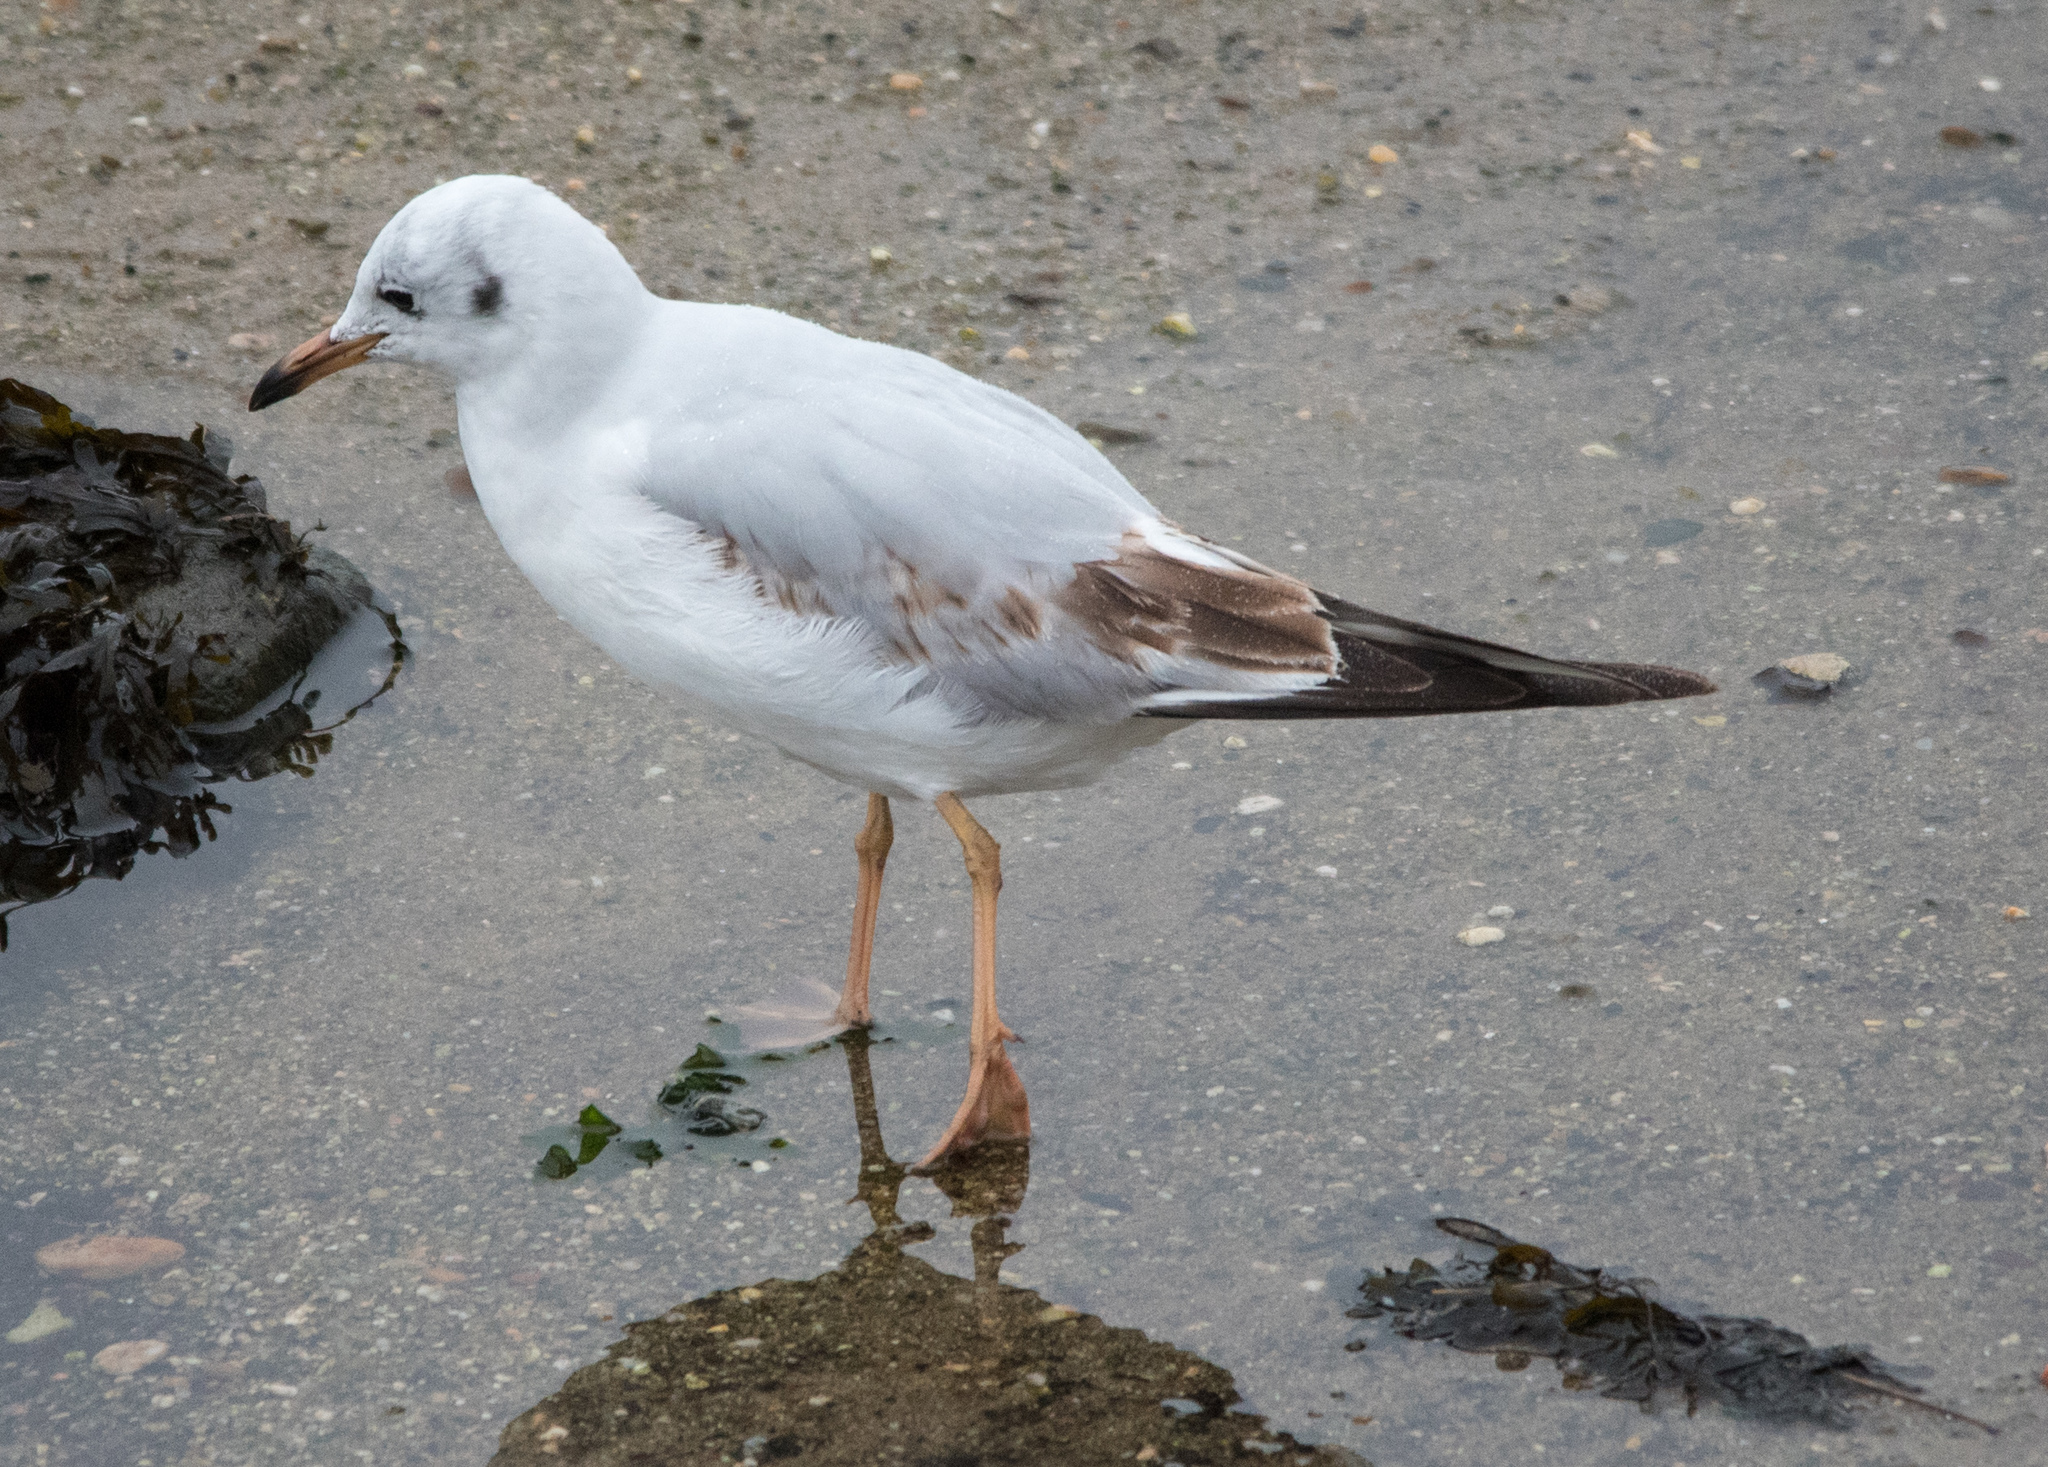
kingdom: Animalia
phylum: Chordata
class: Aves
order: Charadriiformes
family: Laridae
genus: Chroicocephalus
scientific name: Chroicocephalus ridibundus
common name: Black-headed gull
